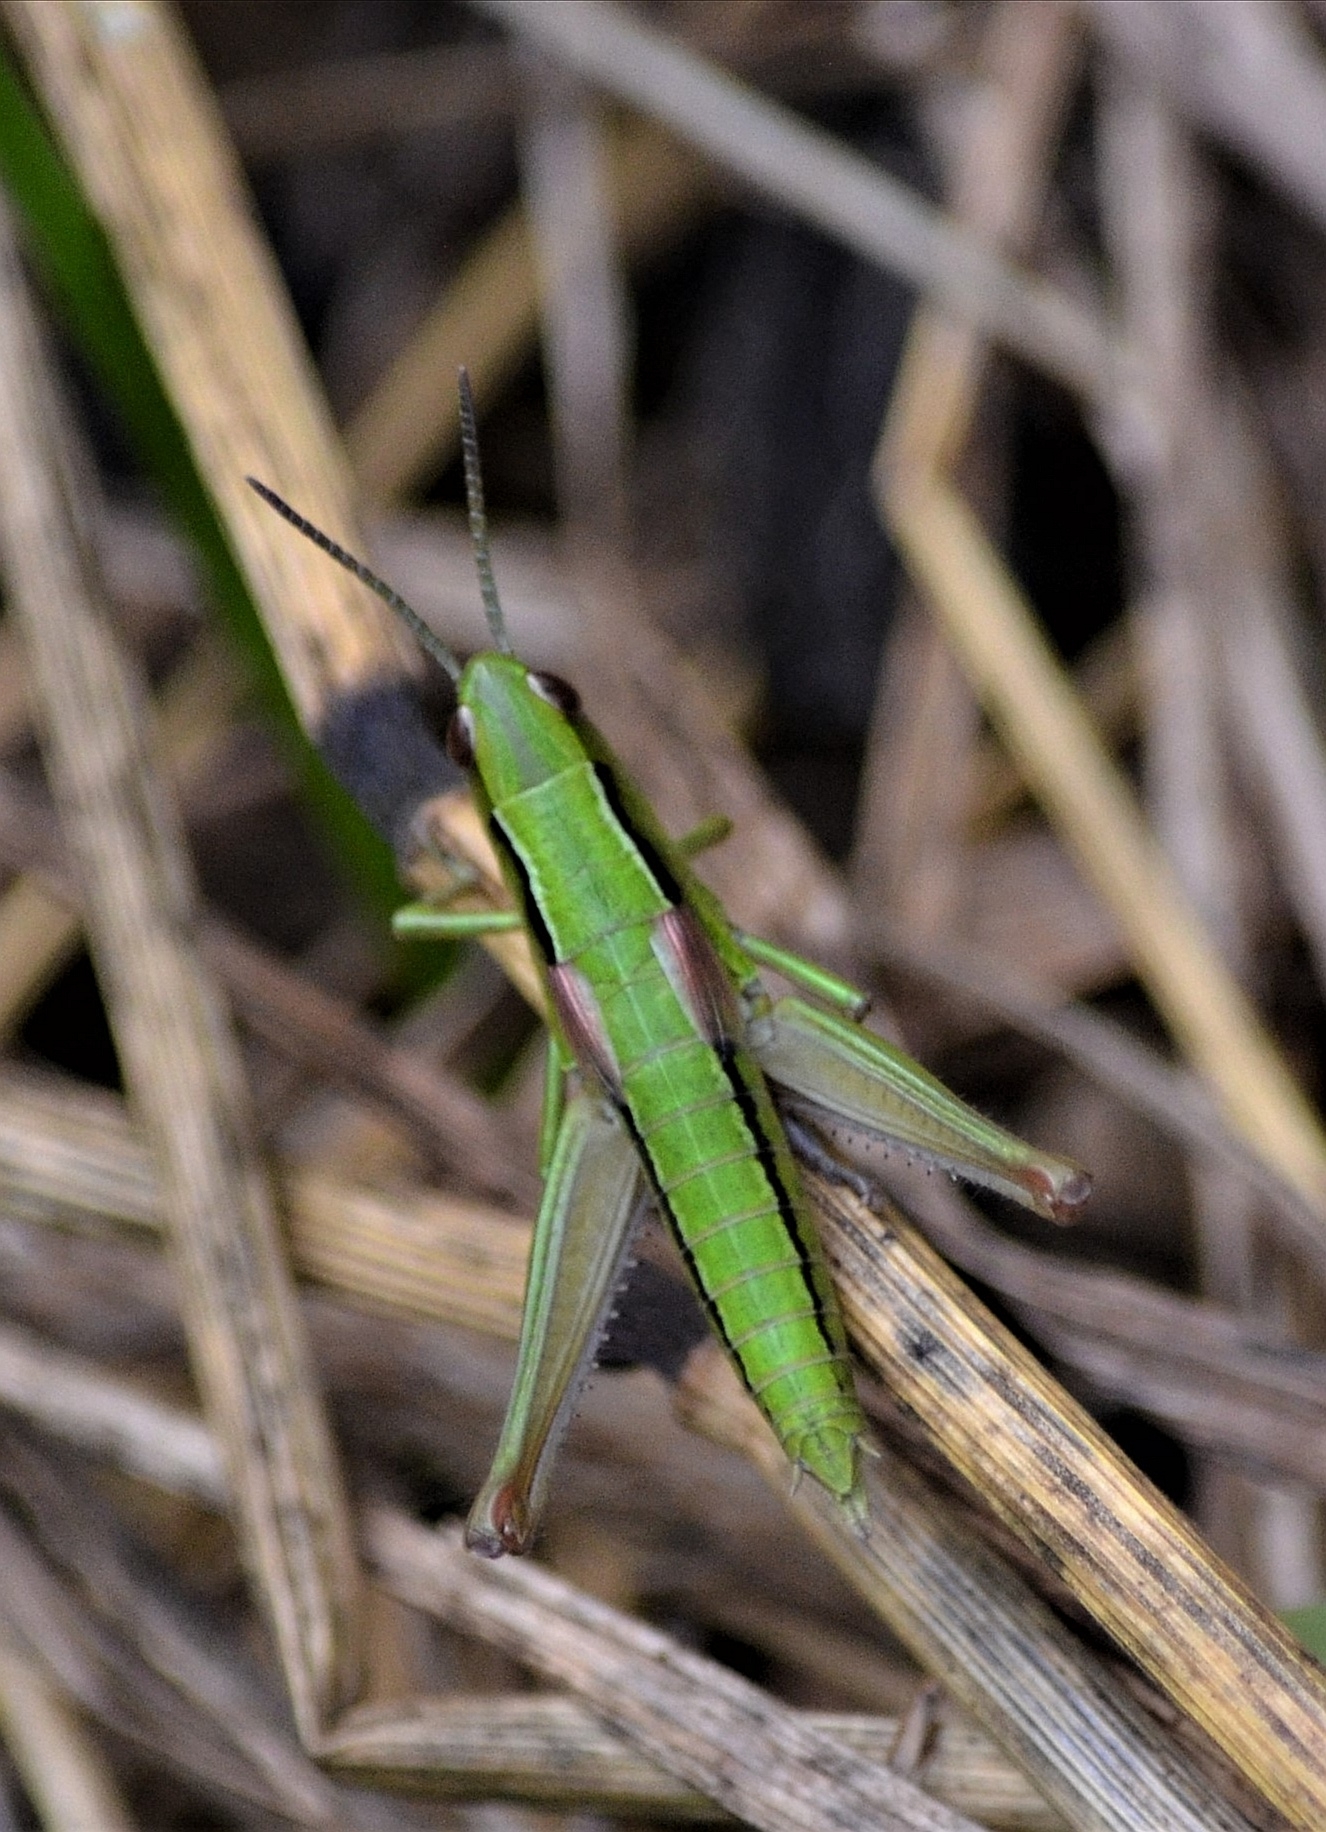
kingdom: Animalia
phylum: Arthropoda
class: Insecta
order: Orthoptera
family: Acrididae
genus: Euthystira
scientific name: Euthystira brachyptera
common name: Small gold grasshopper
